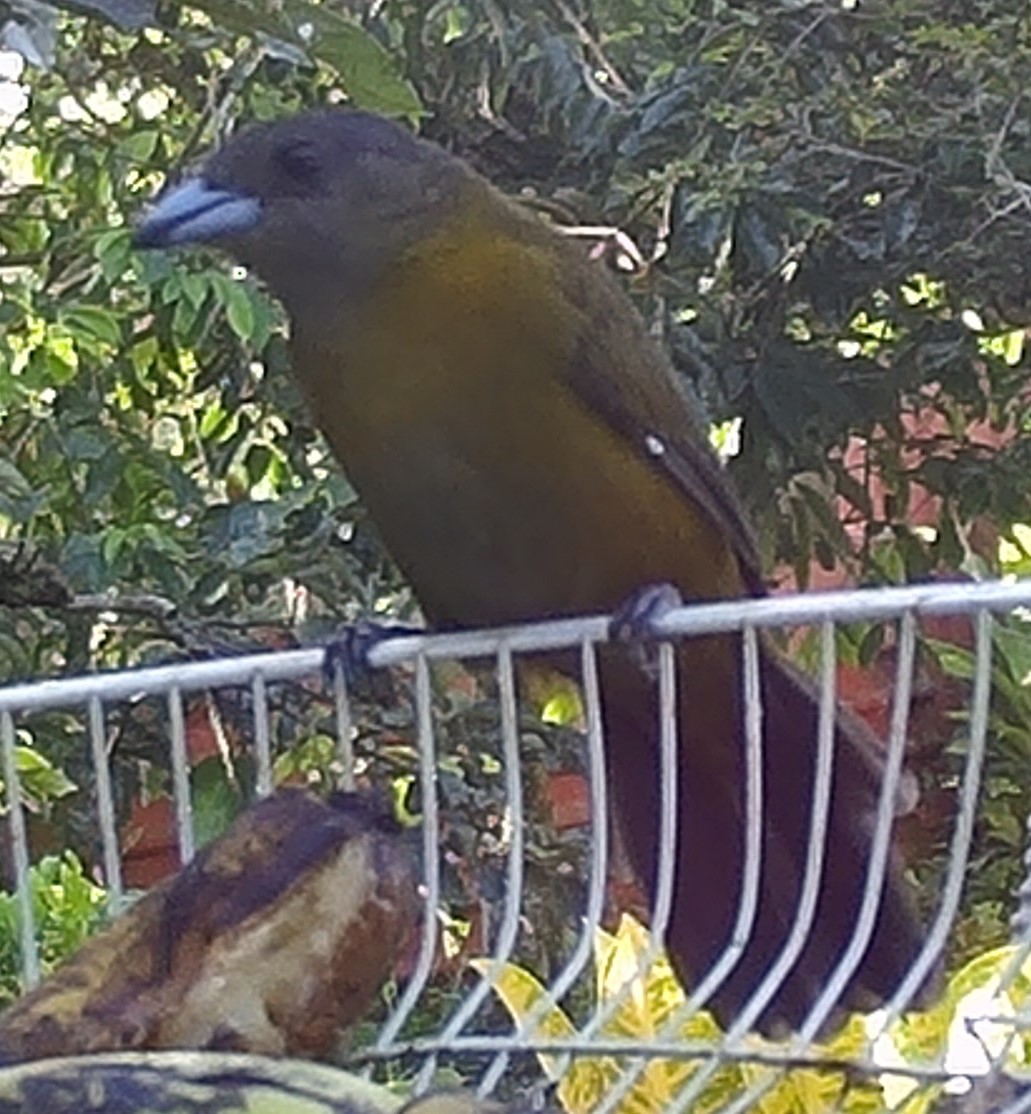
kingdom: Animalia
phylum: Chordata
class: Aves
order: Passeriformes
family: Thraupidae
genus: Ramphocelus
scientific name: Ramphocelus passerinii
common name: Passerini's tanager
